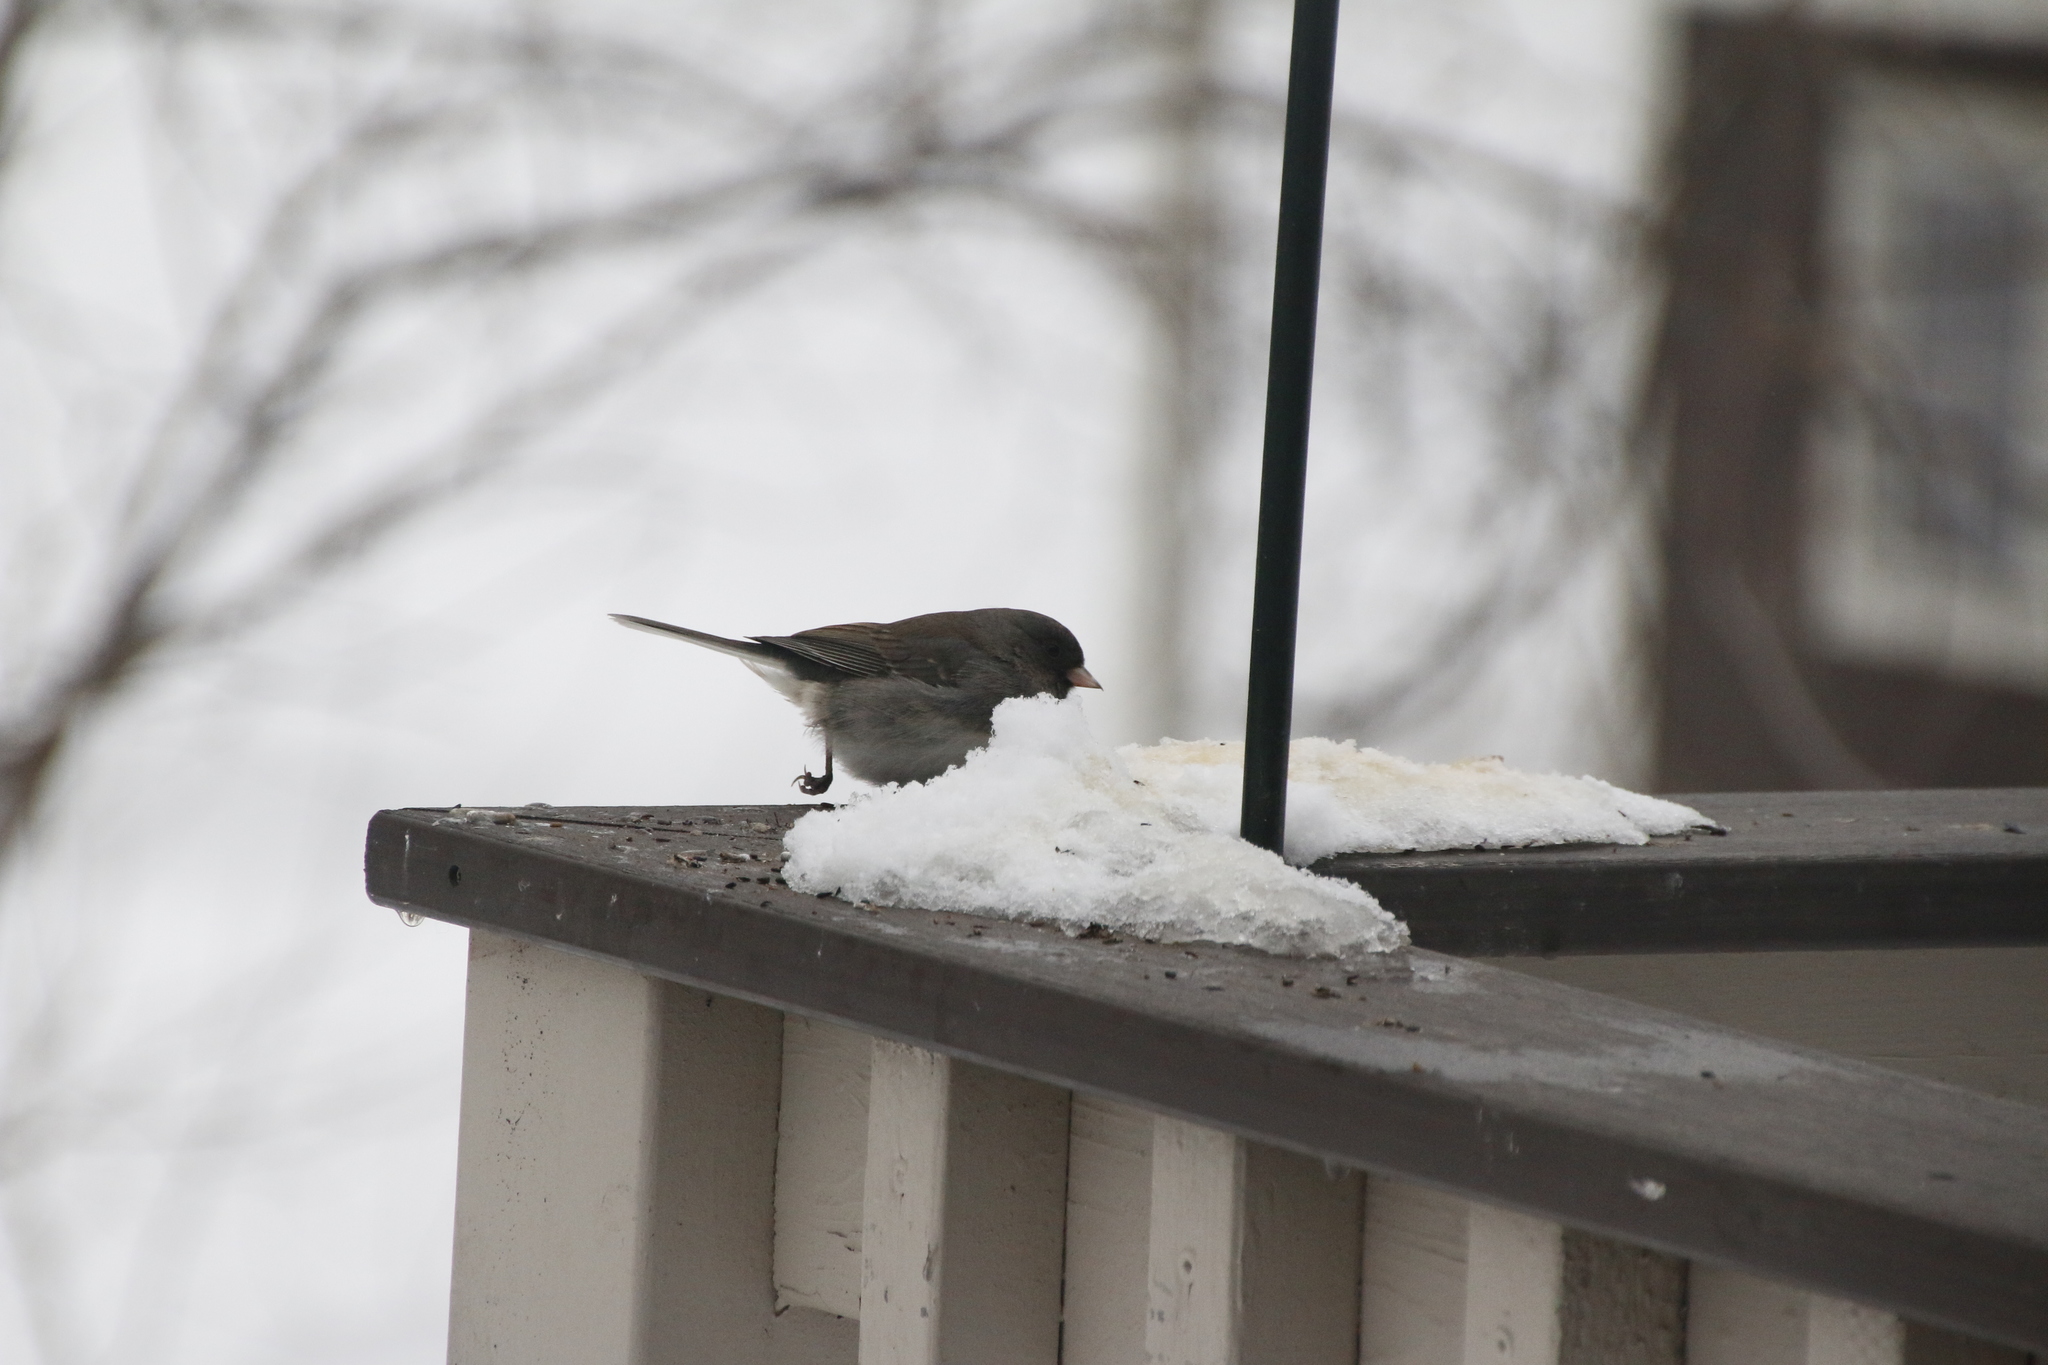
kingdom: Animalia
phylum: Chordata
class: Aves
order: Passeriformes
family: Passerellidae
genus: Junco
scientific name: Junco hyemalis
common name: Dark-eyed junco
